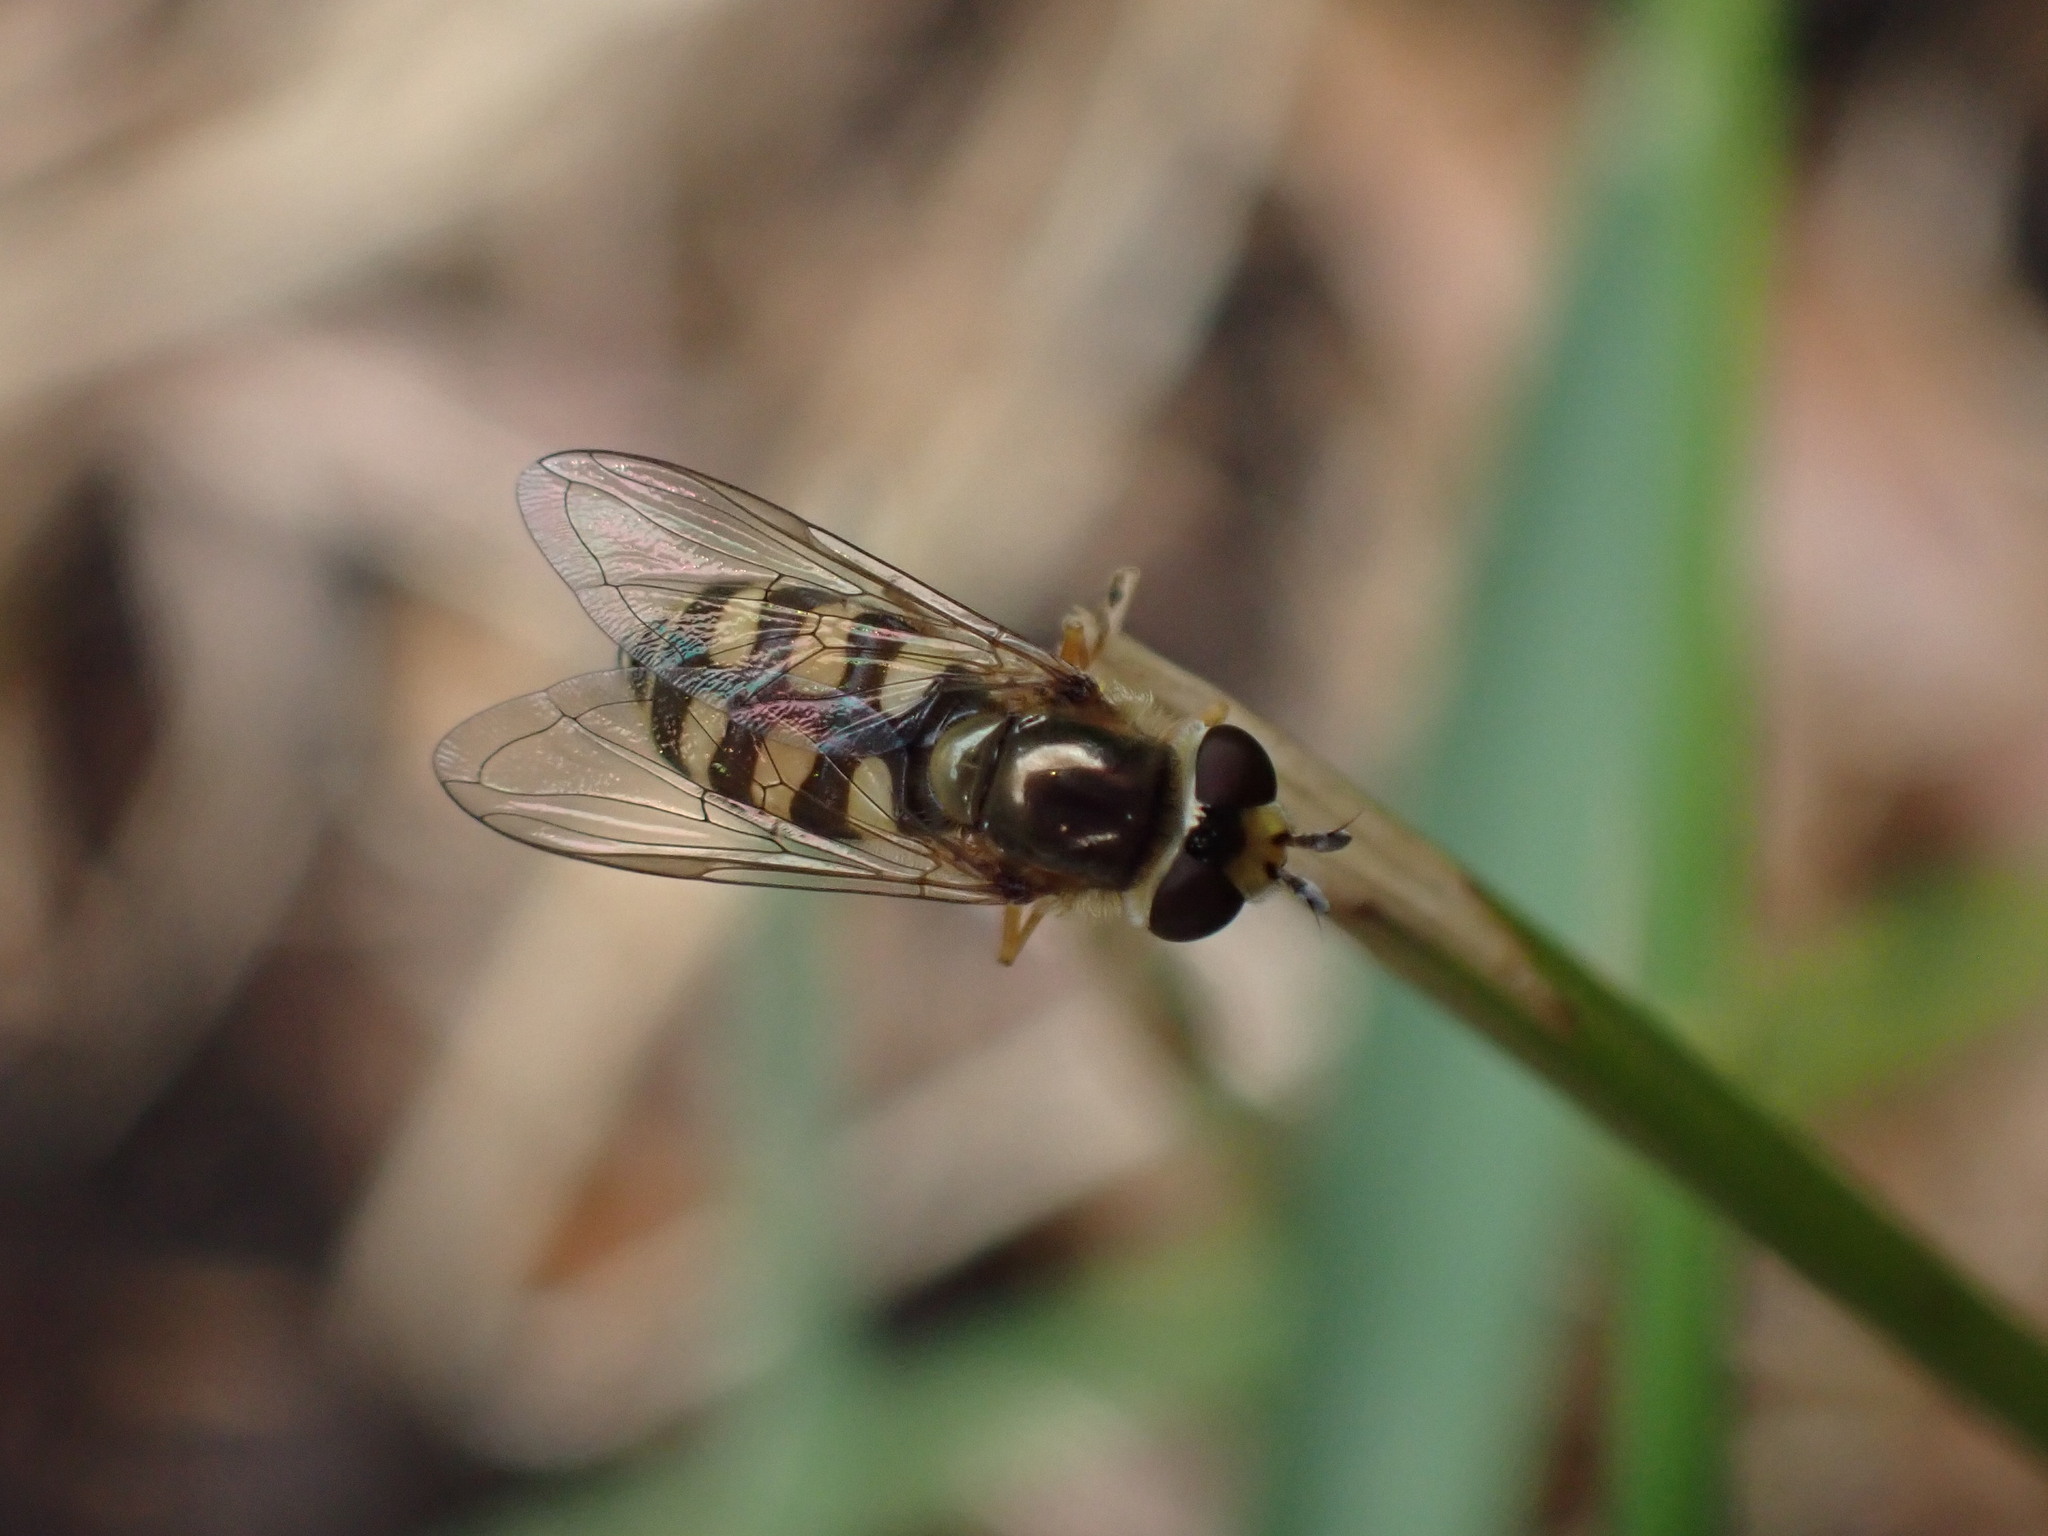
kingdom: Animalia
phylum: Arthropoda
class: Insecta
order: Diptera
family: Syrphidae
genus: Eupeodes
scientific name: Eupeodes corollae
